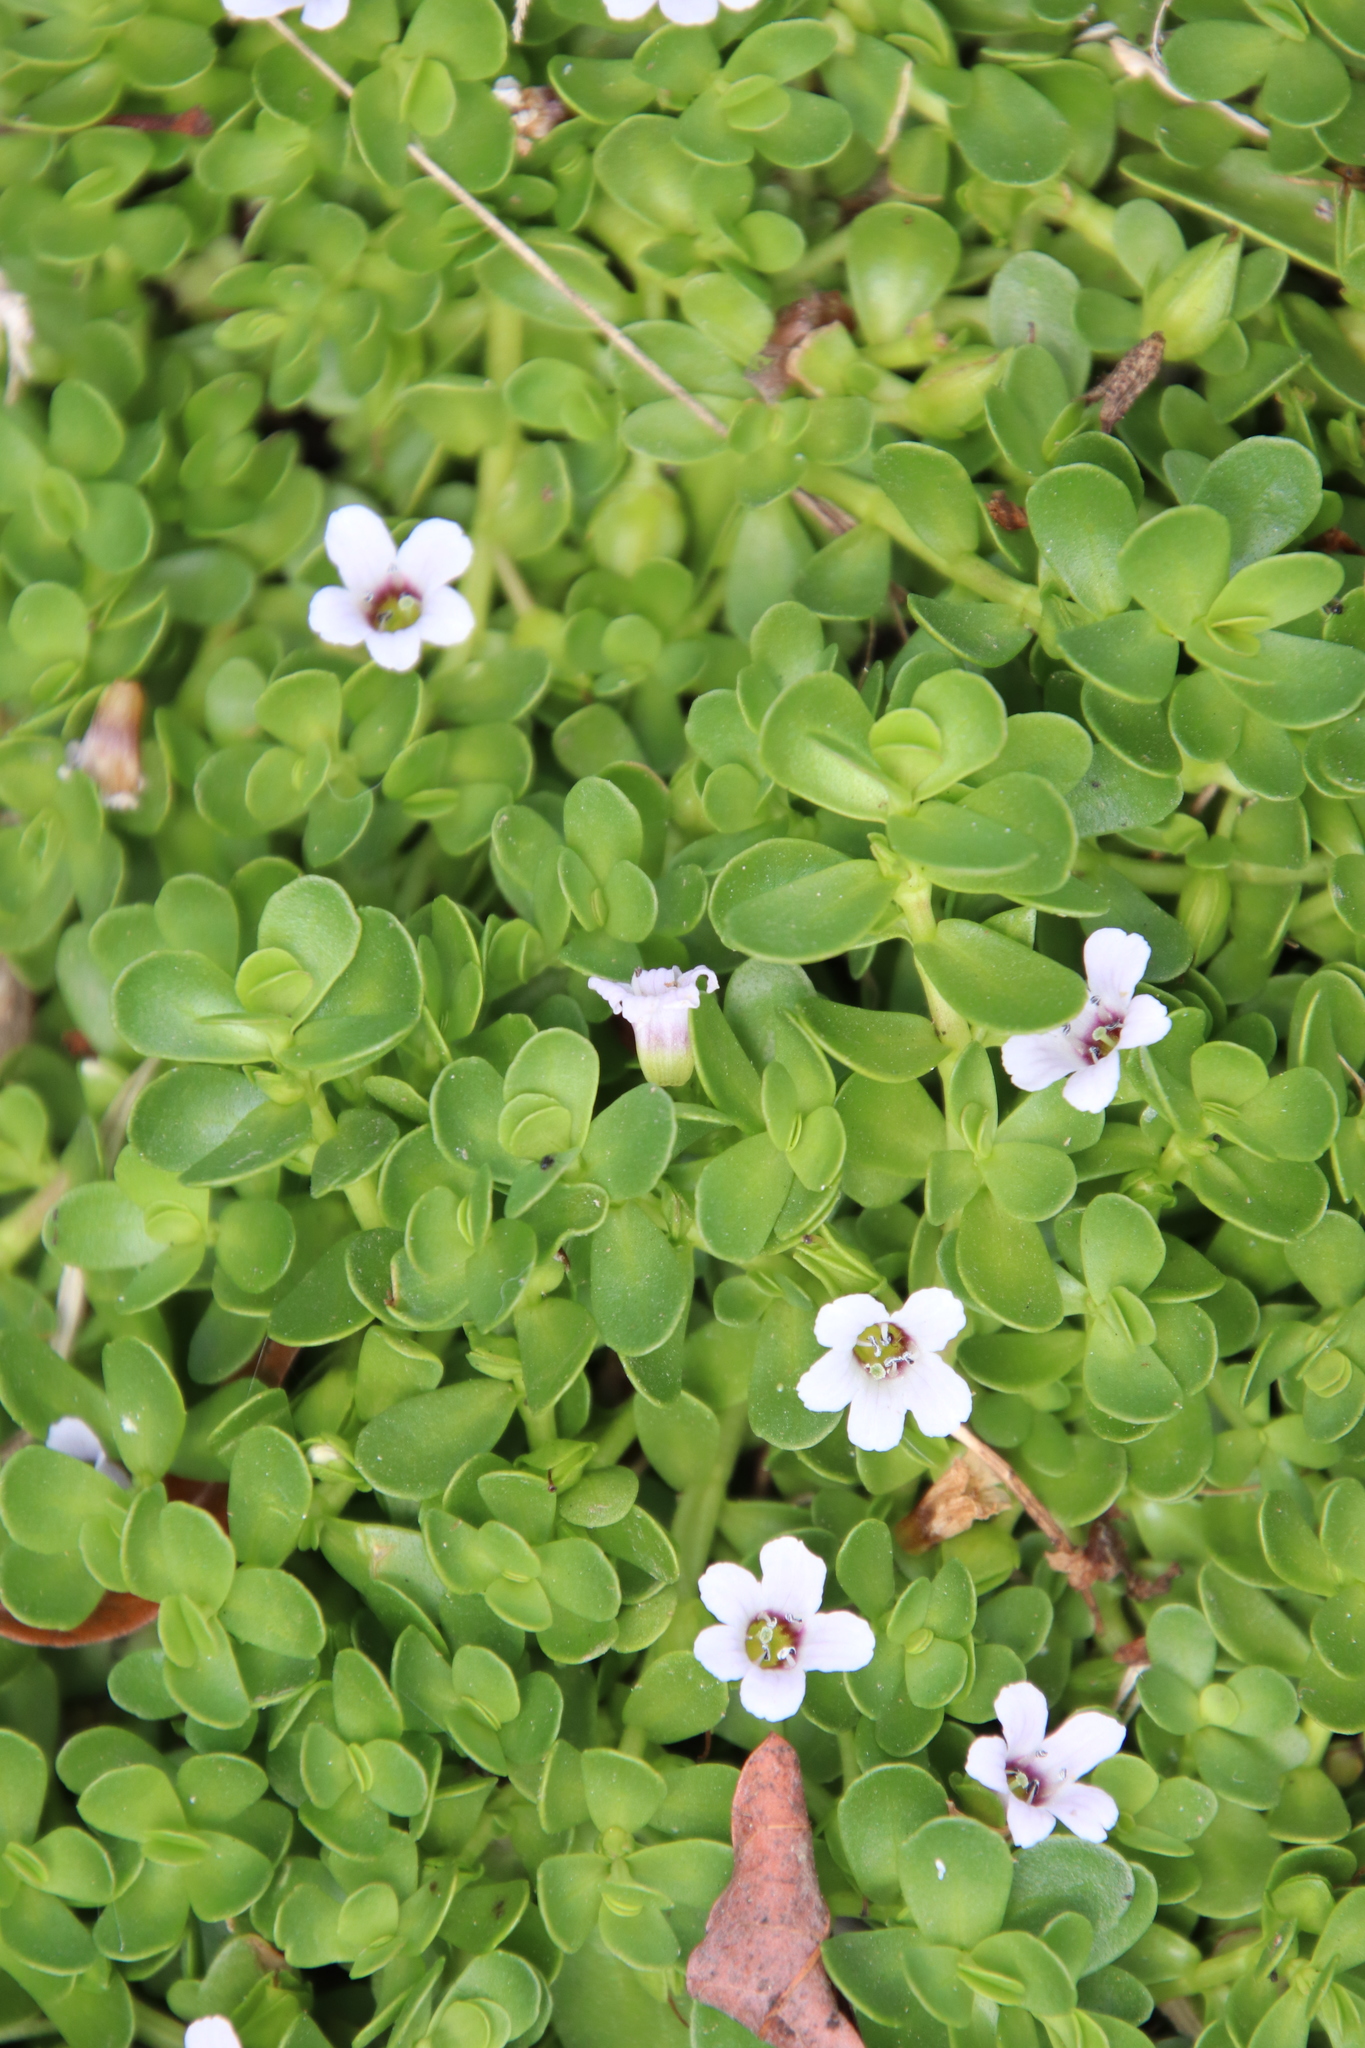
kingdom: Plantae
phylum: Tracheophyta
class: Magnoliopsida
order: Lamiales
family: Plantaginaceae
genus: Bacopa
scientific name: Bacopa monnieri
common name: Indian-pennywort
